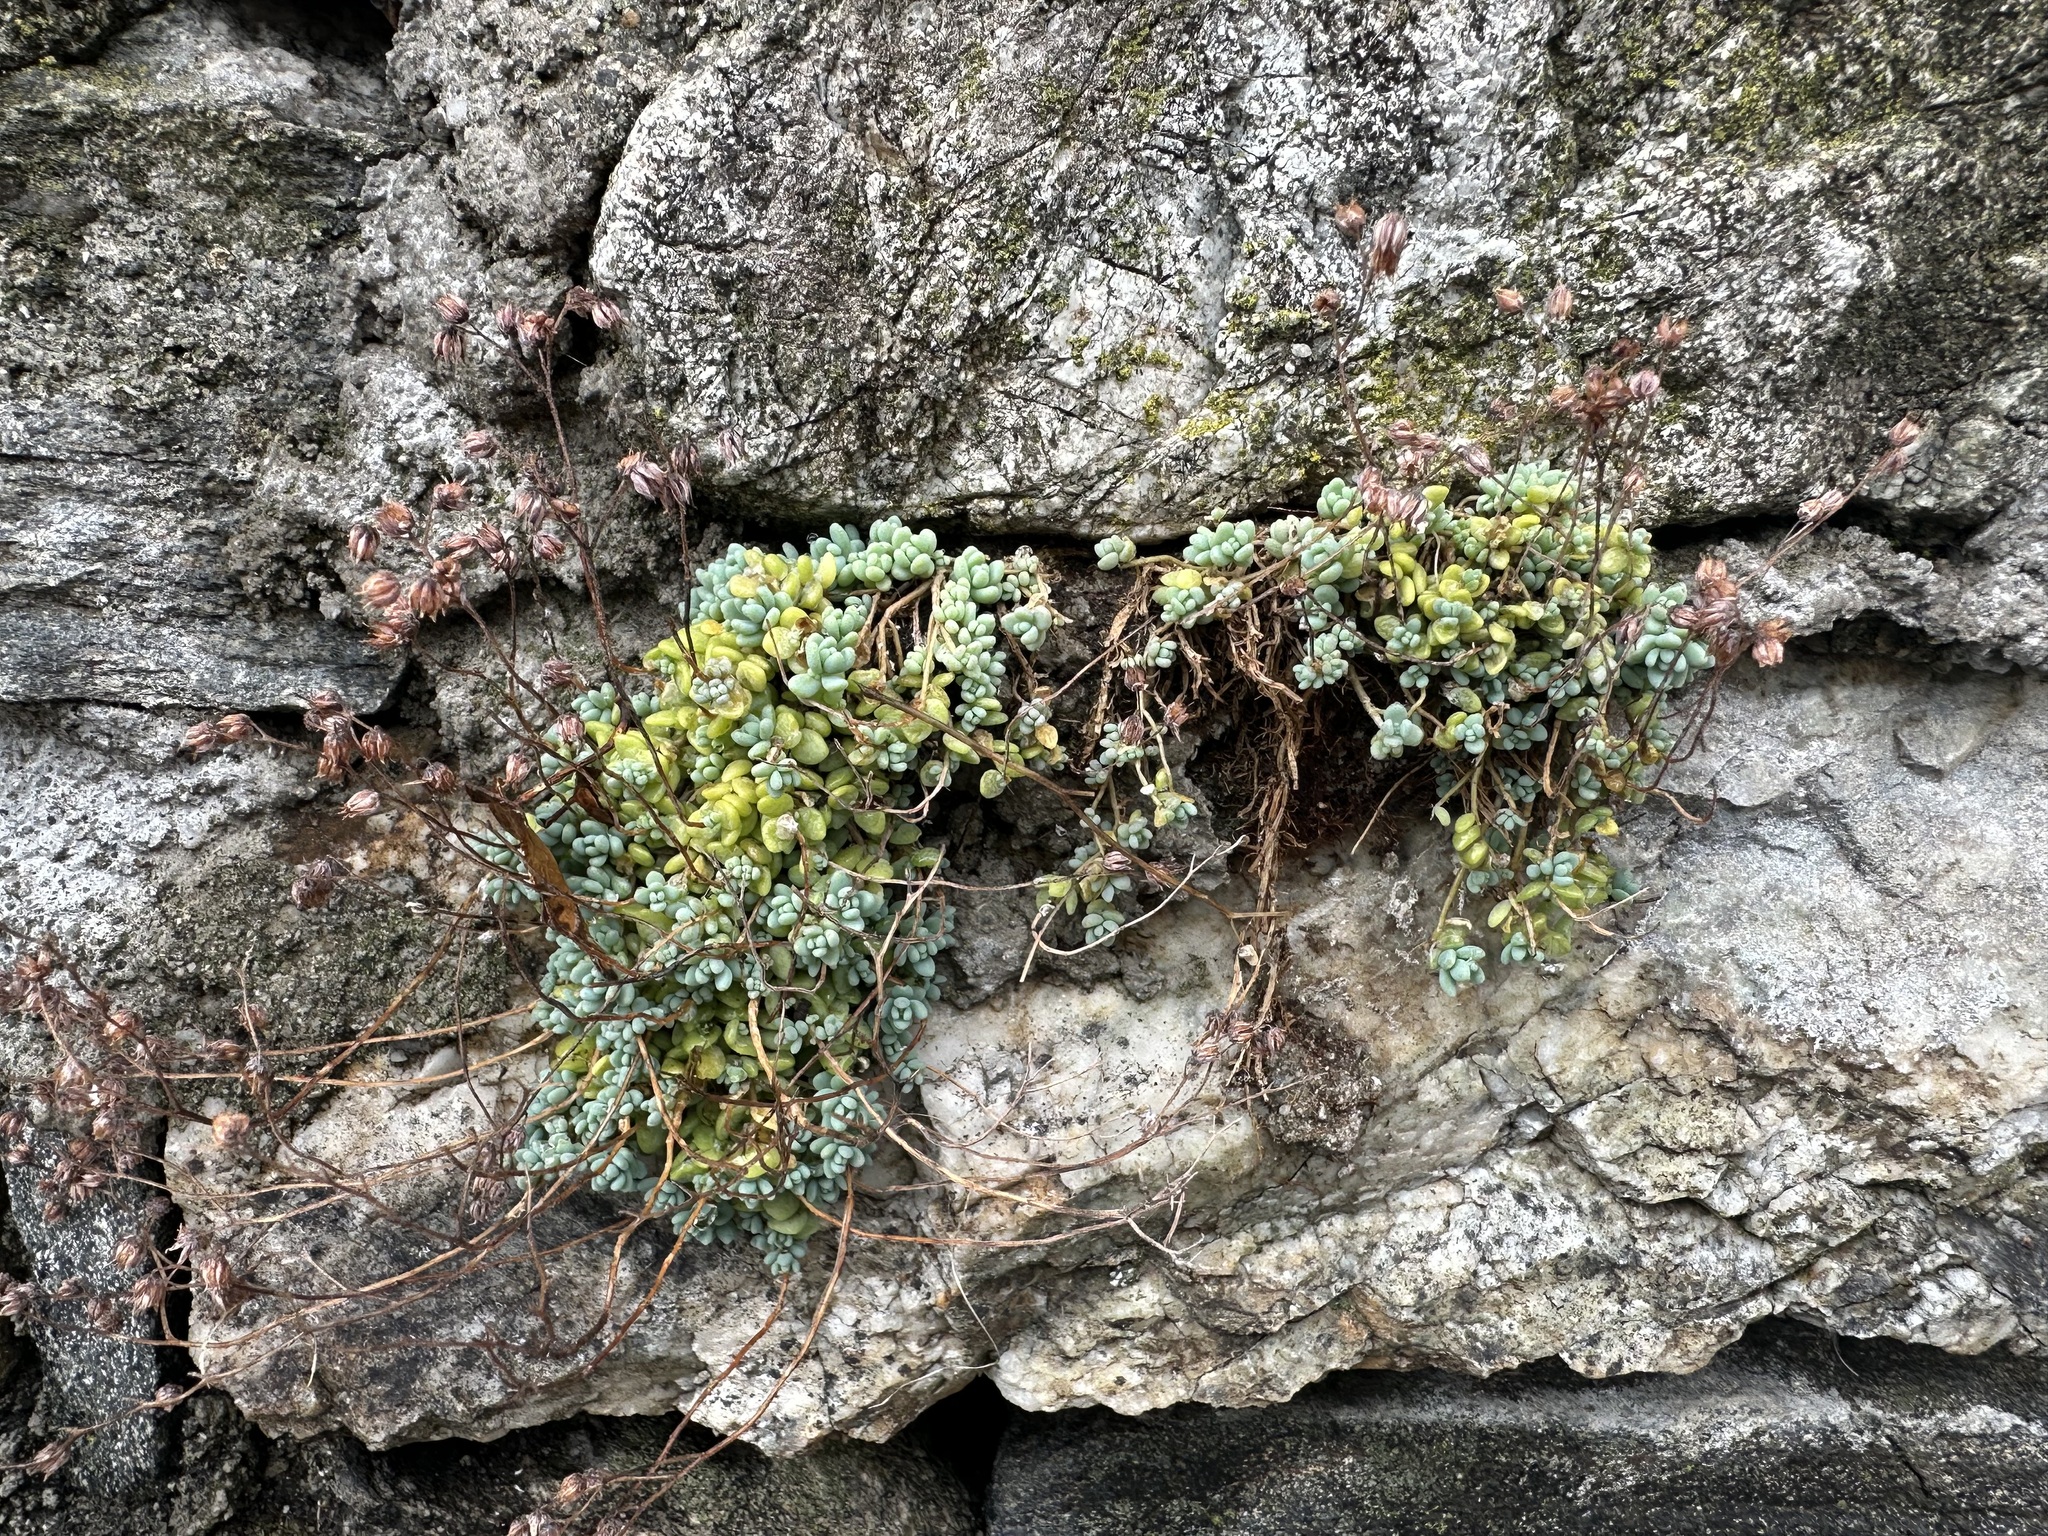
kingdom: Plantae
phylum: Tracheophyta
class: Magnoliopsida
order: Saxifragales
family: Crassulaceae
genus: Sedum
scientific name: Sedum dasyphyllum
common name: Thick-leaf stonecrop
